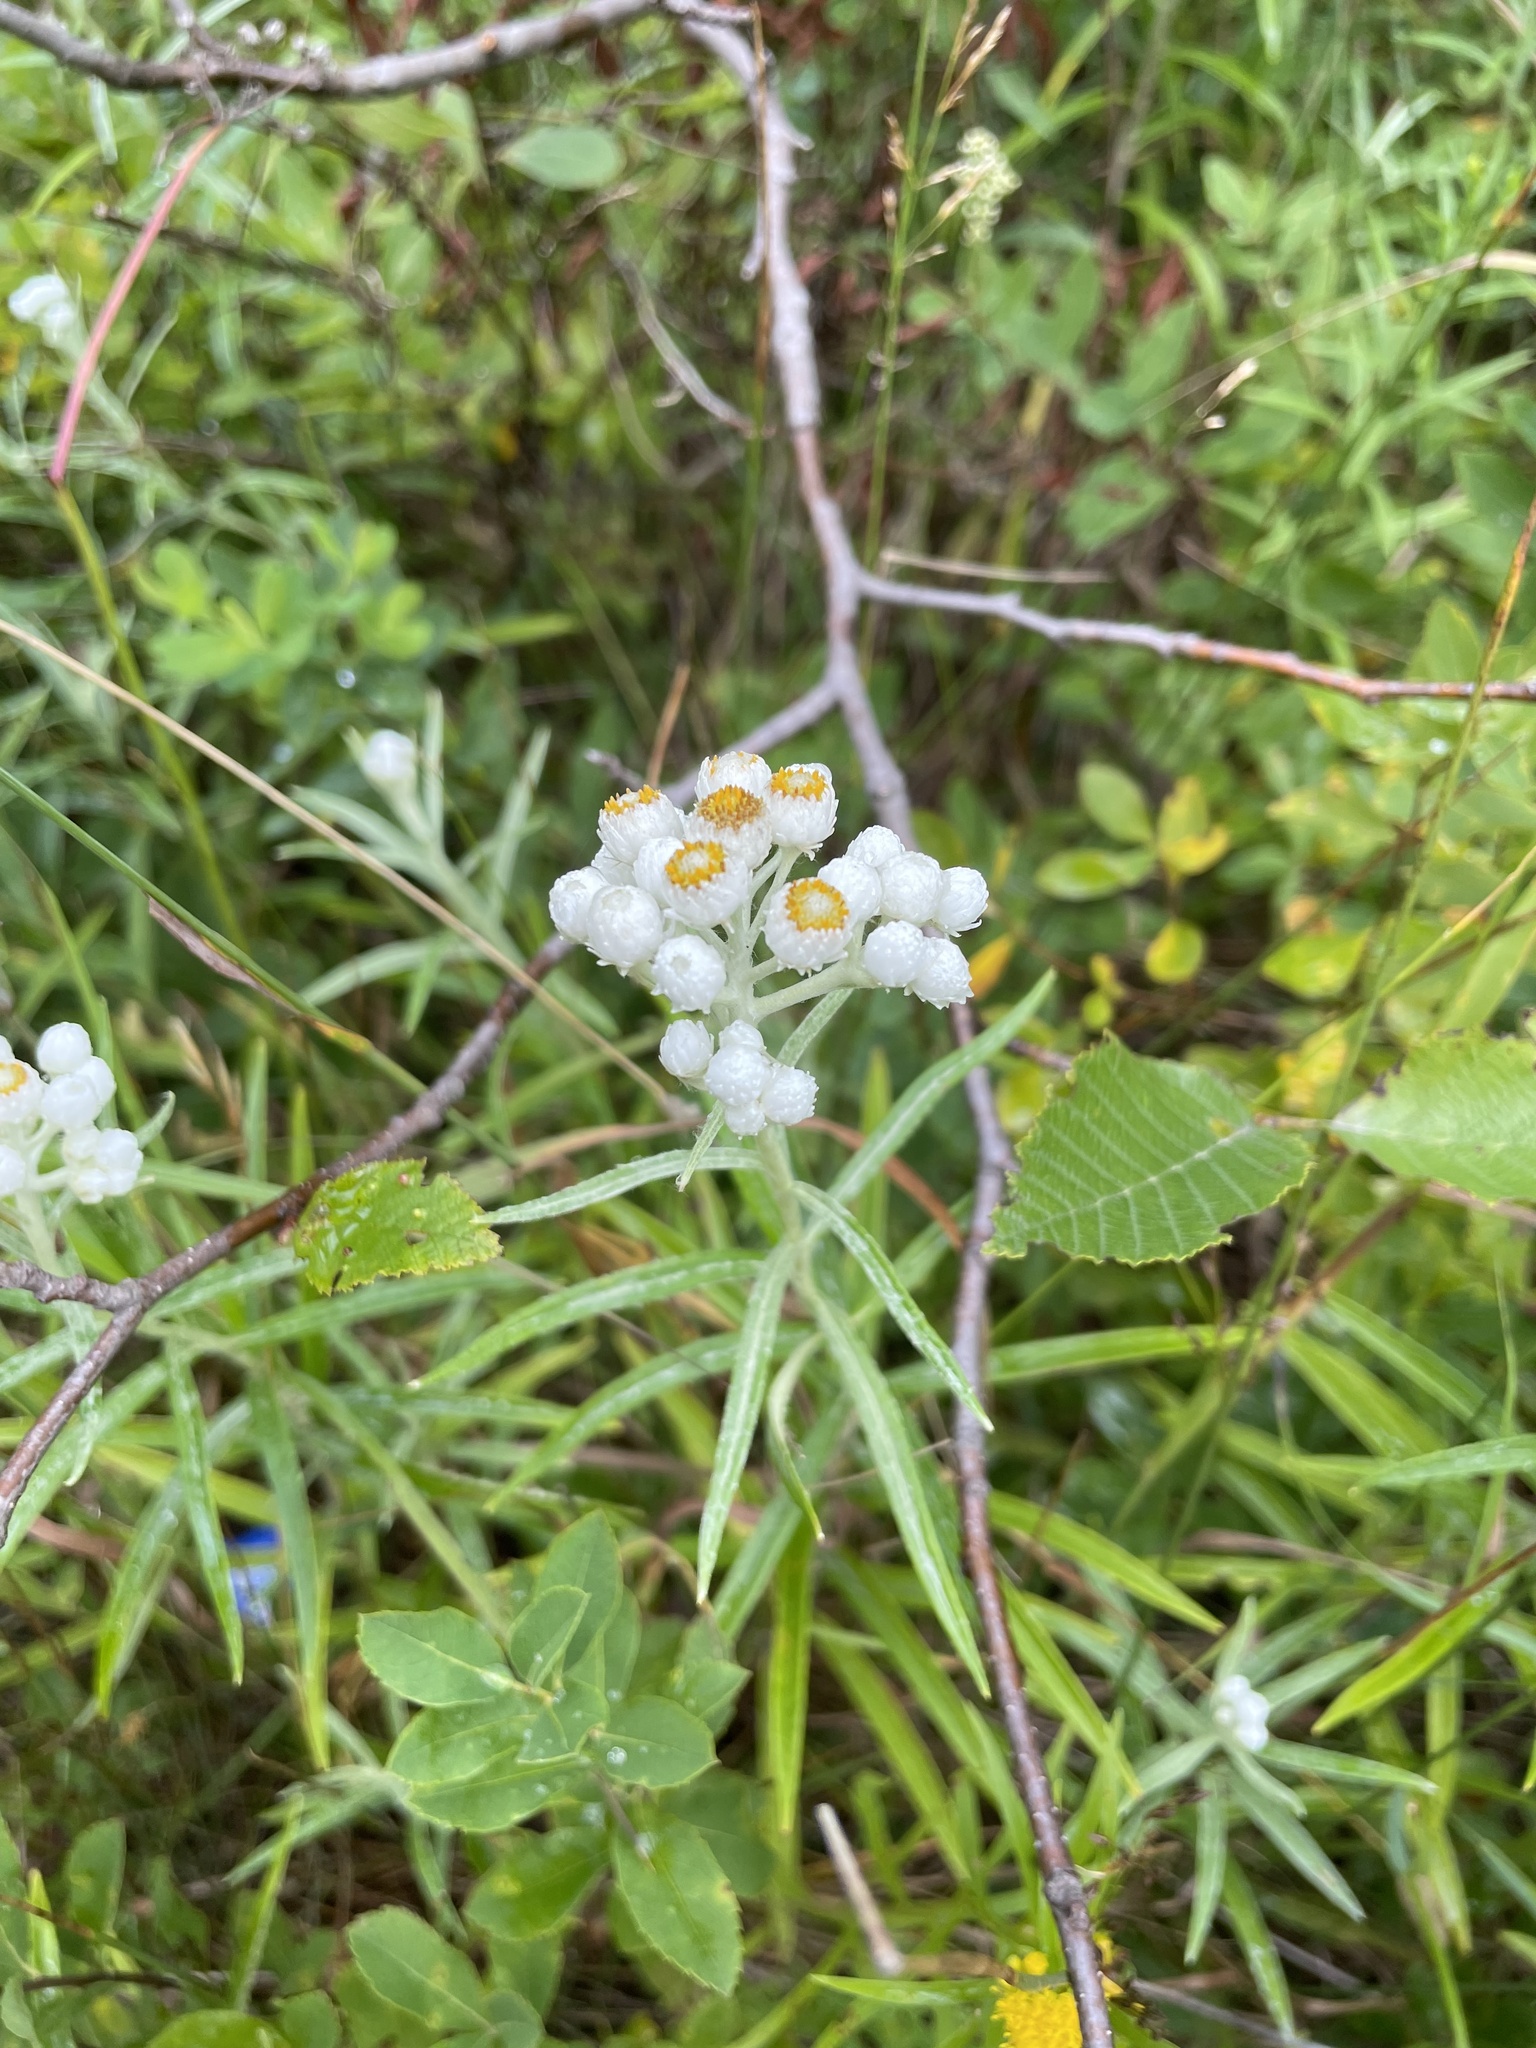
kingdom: Plantae
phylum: Tracheophyta
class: Magnoliopsida
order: Asterales
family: Asteraceae
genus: Anaphalis
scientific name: Anaphalis margaritacea
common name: Pearly everlasting
